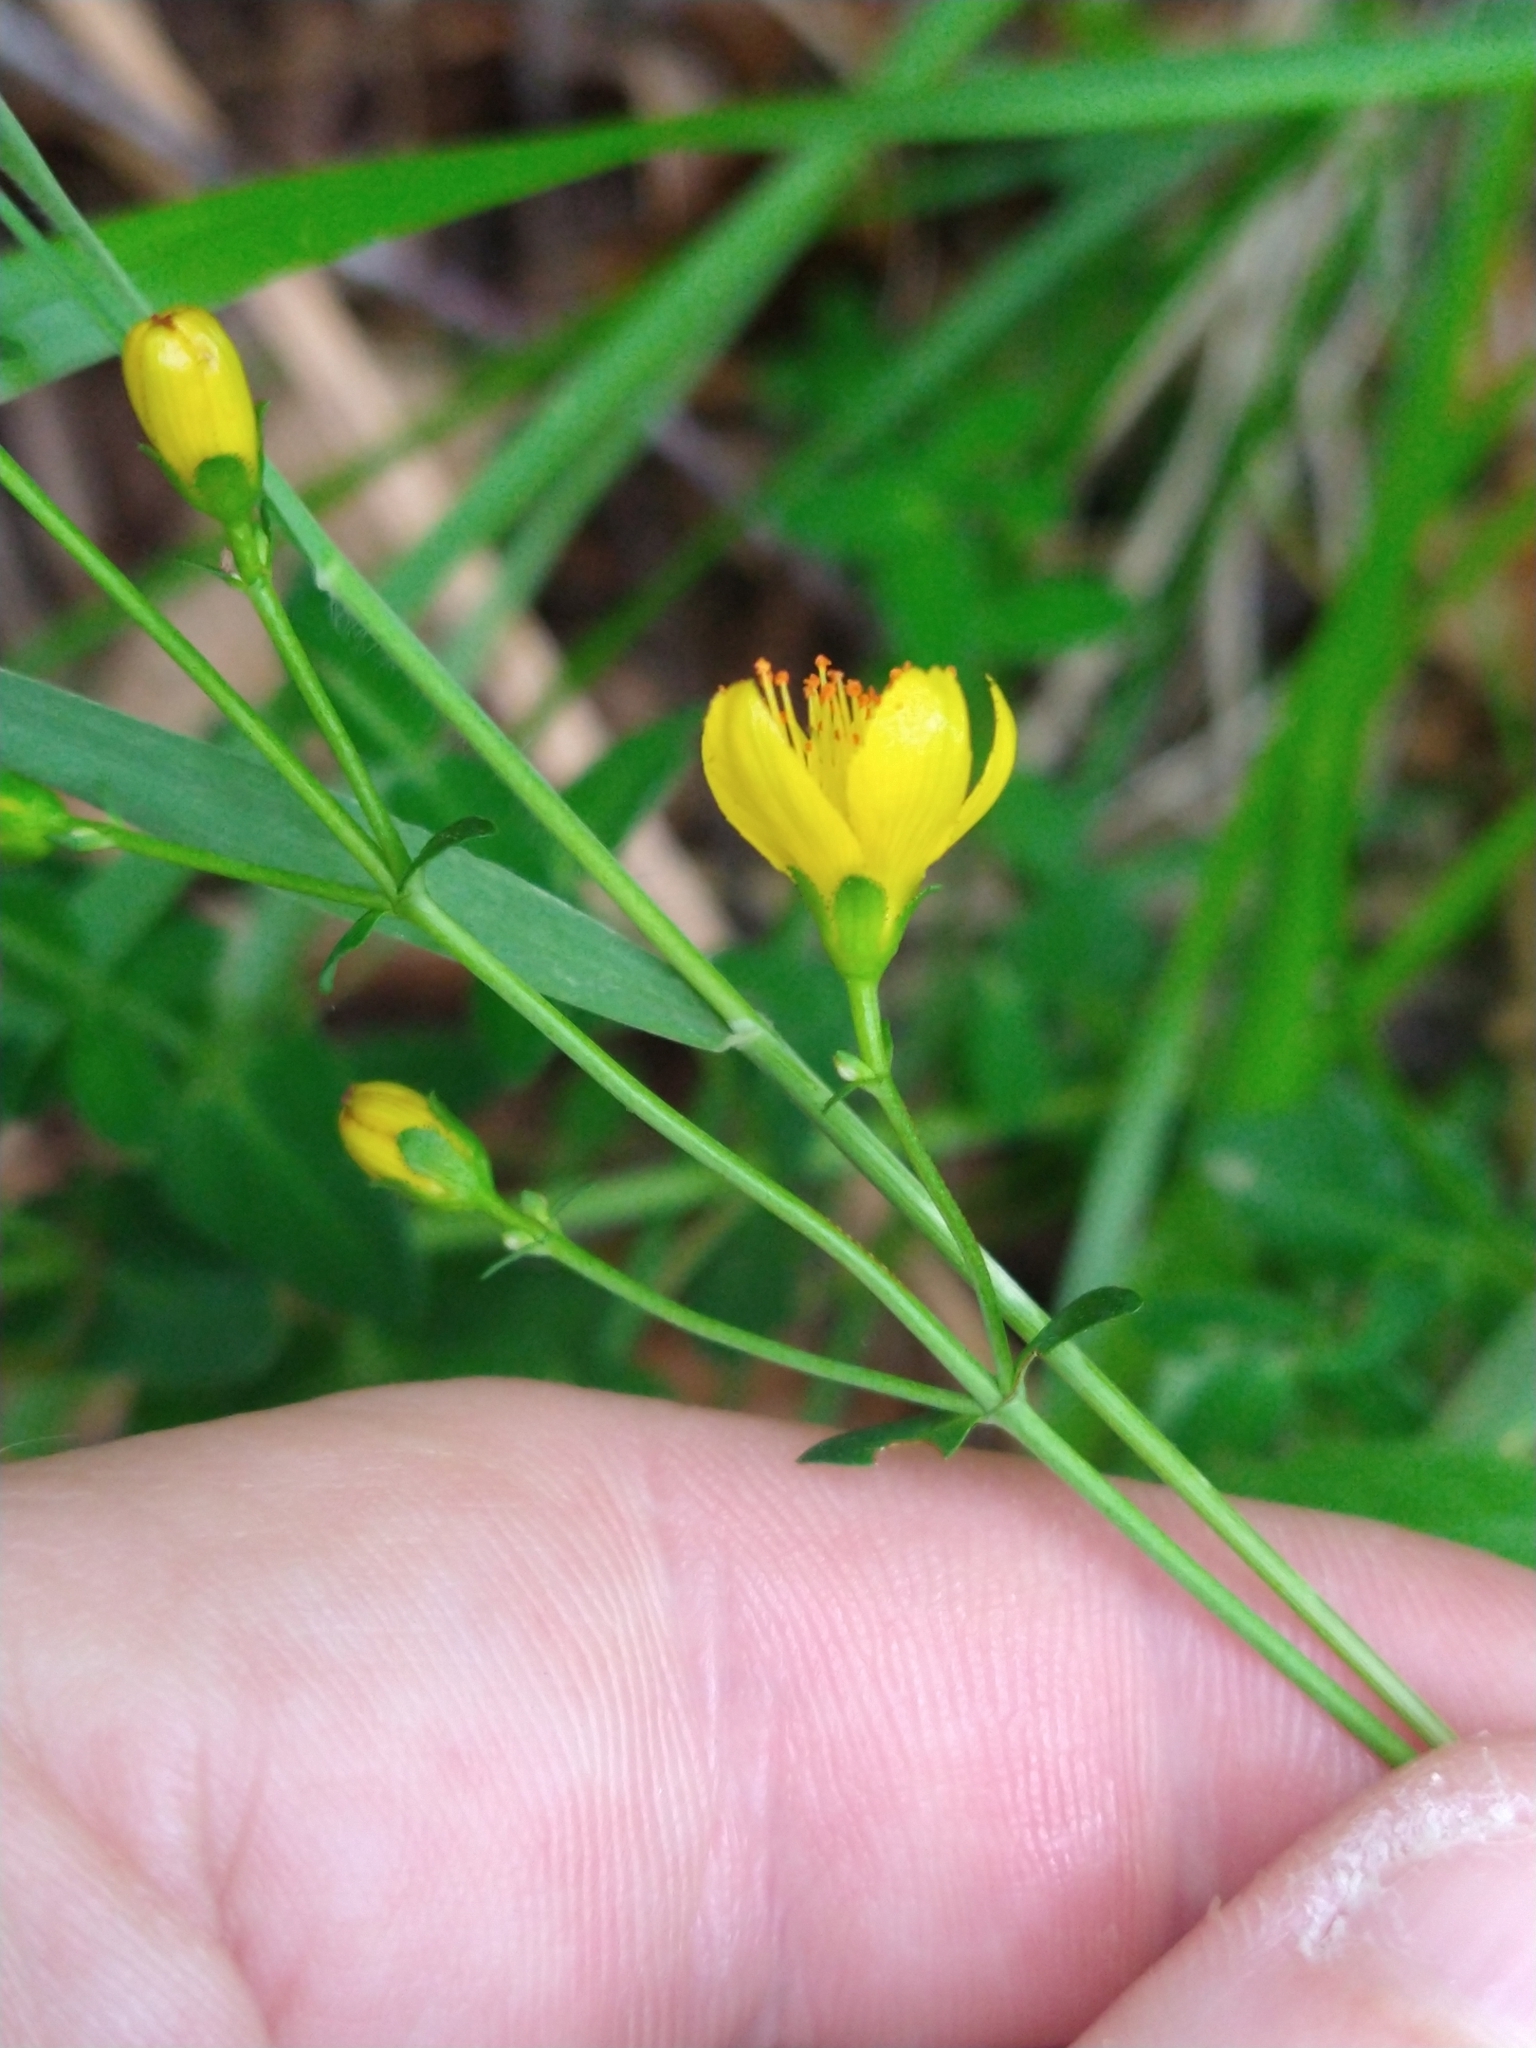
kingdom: Plantae
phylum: Tracheophyta
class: Magnoliopsida
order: Malpighiales
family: Hypericaceae
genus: Hypericum
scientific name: Hypericum pulchrum
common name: Slender st. john's-wort
